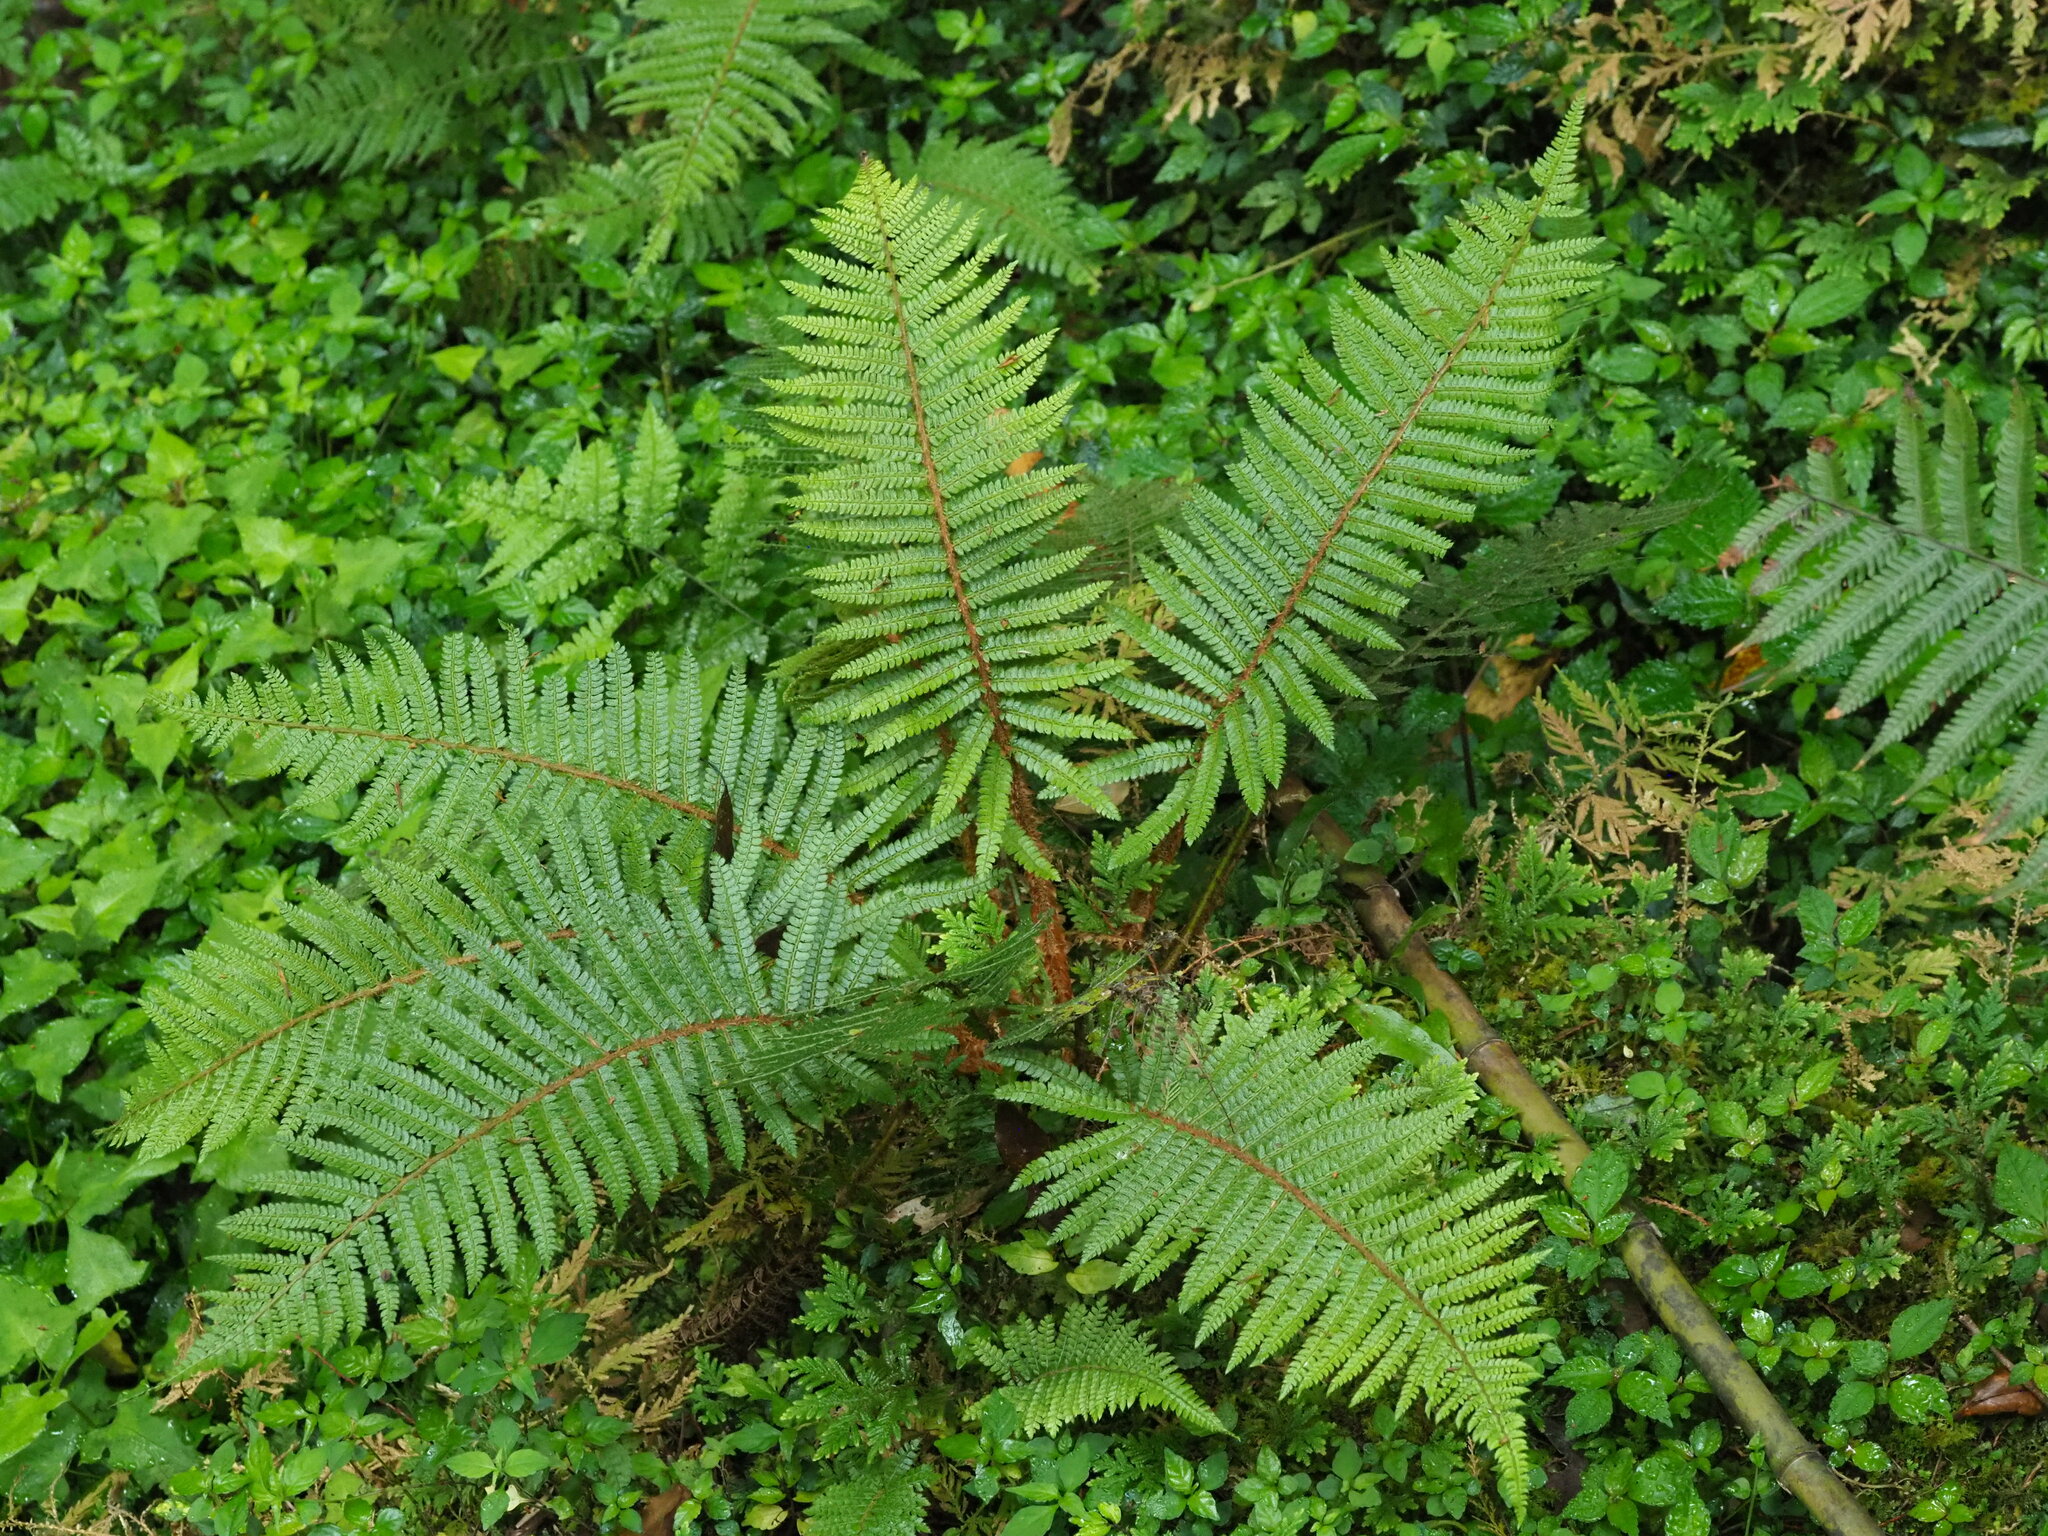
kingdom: Plantae
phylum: Tracheophyta
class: Polypodiopsida
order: Polypodiales
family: Dryopteridaceae
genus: Polystichum
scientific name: Polystichum parvipinnulum
